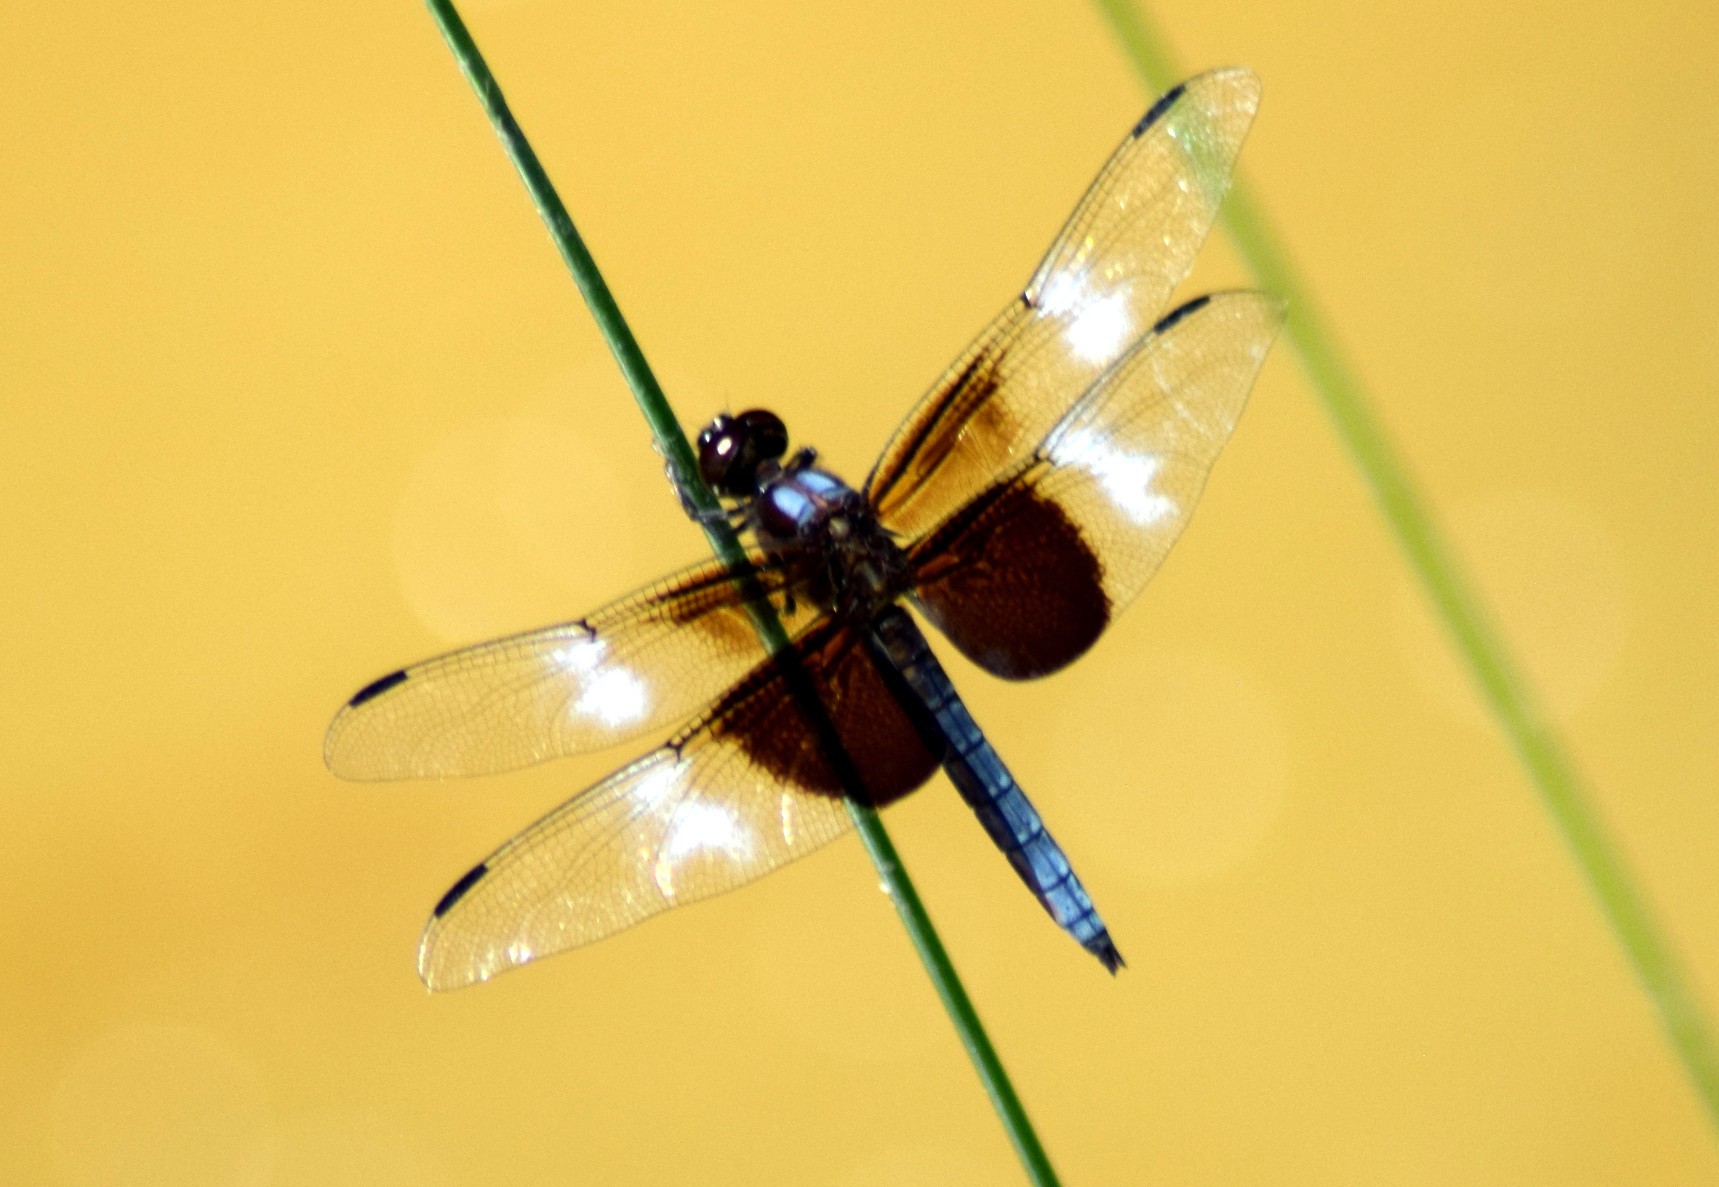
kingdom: Animalia
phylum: Arthropoda
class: Insecta
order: Odonata
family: Libellulidae
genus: Libellula
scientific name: Libellula luctuosa
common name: Widow skimmer
